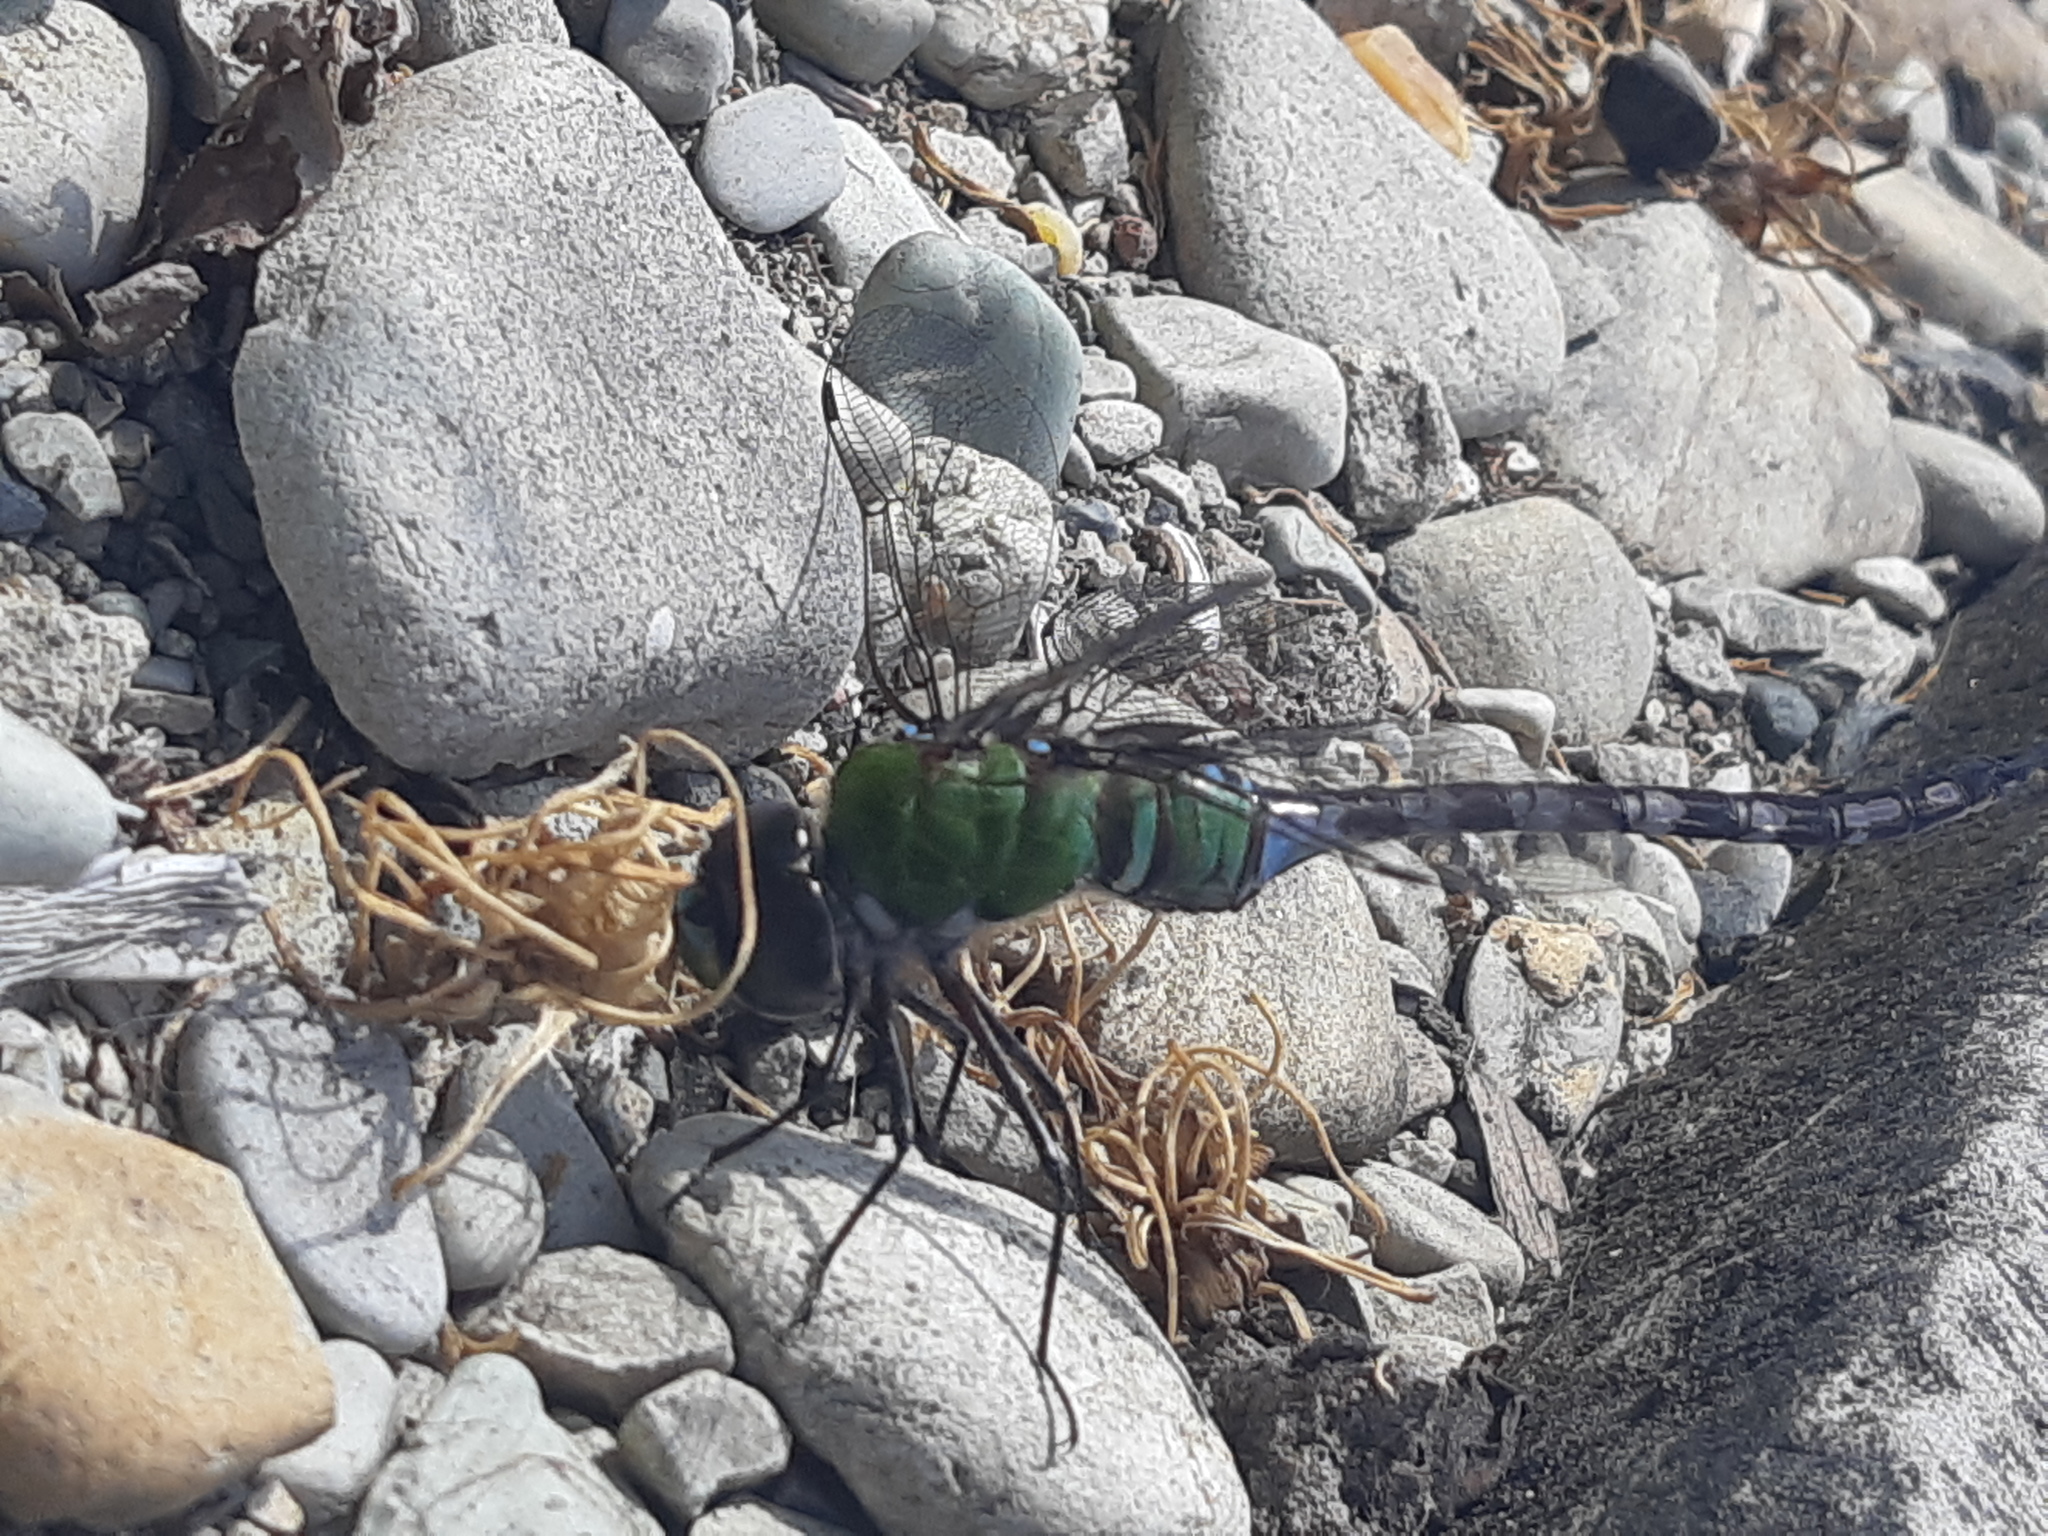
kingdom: Animalia
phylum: Arthropoda
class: Insecta
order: Odonata
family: Aeshnidae
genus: Anax
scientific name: Anax amazili
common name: Amazon darner
